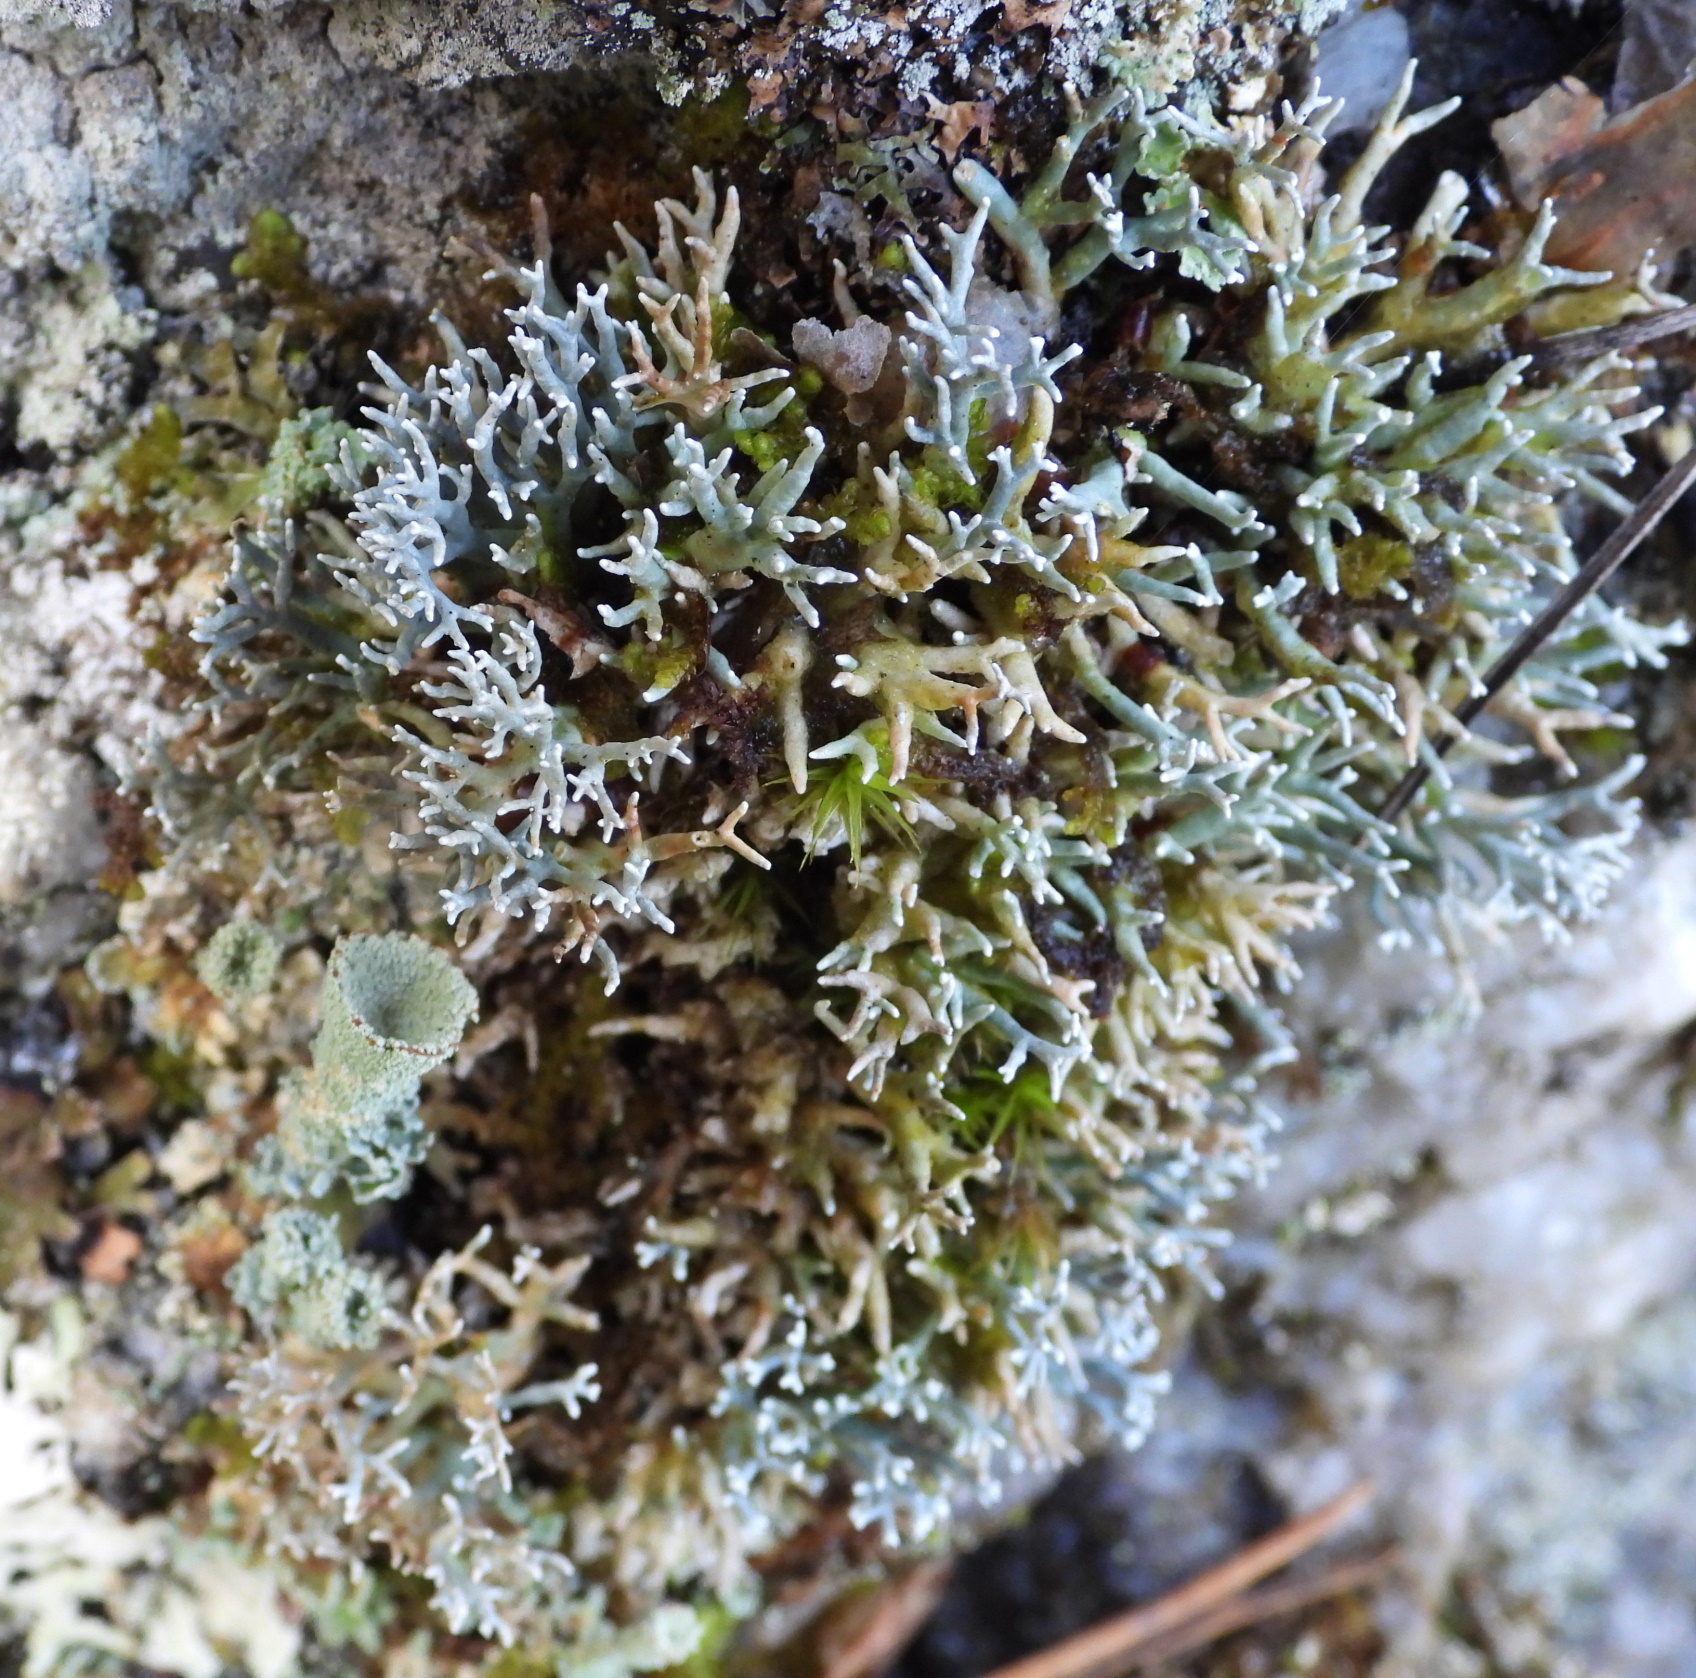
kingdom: Fungi
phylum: Ascomycota
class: Lecanoromycetes
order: Lecanorales
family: Sphaerophoraceae
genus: Sphaerophorus
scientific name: Sphaerophorus fragilis
